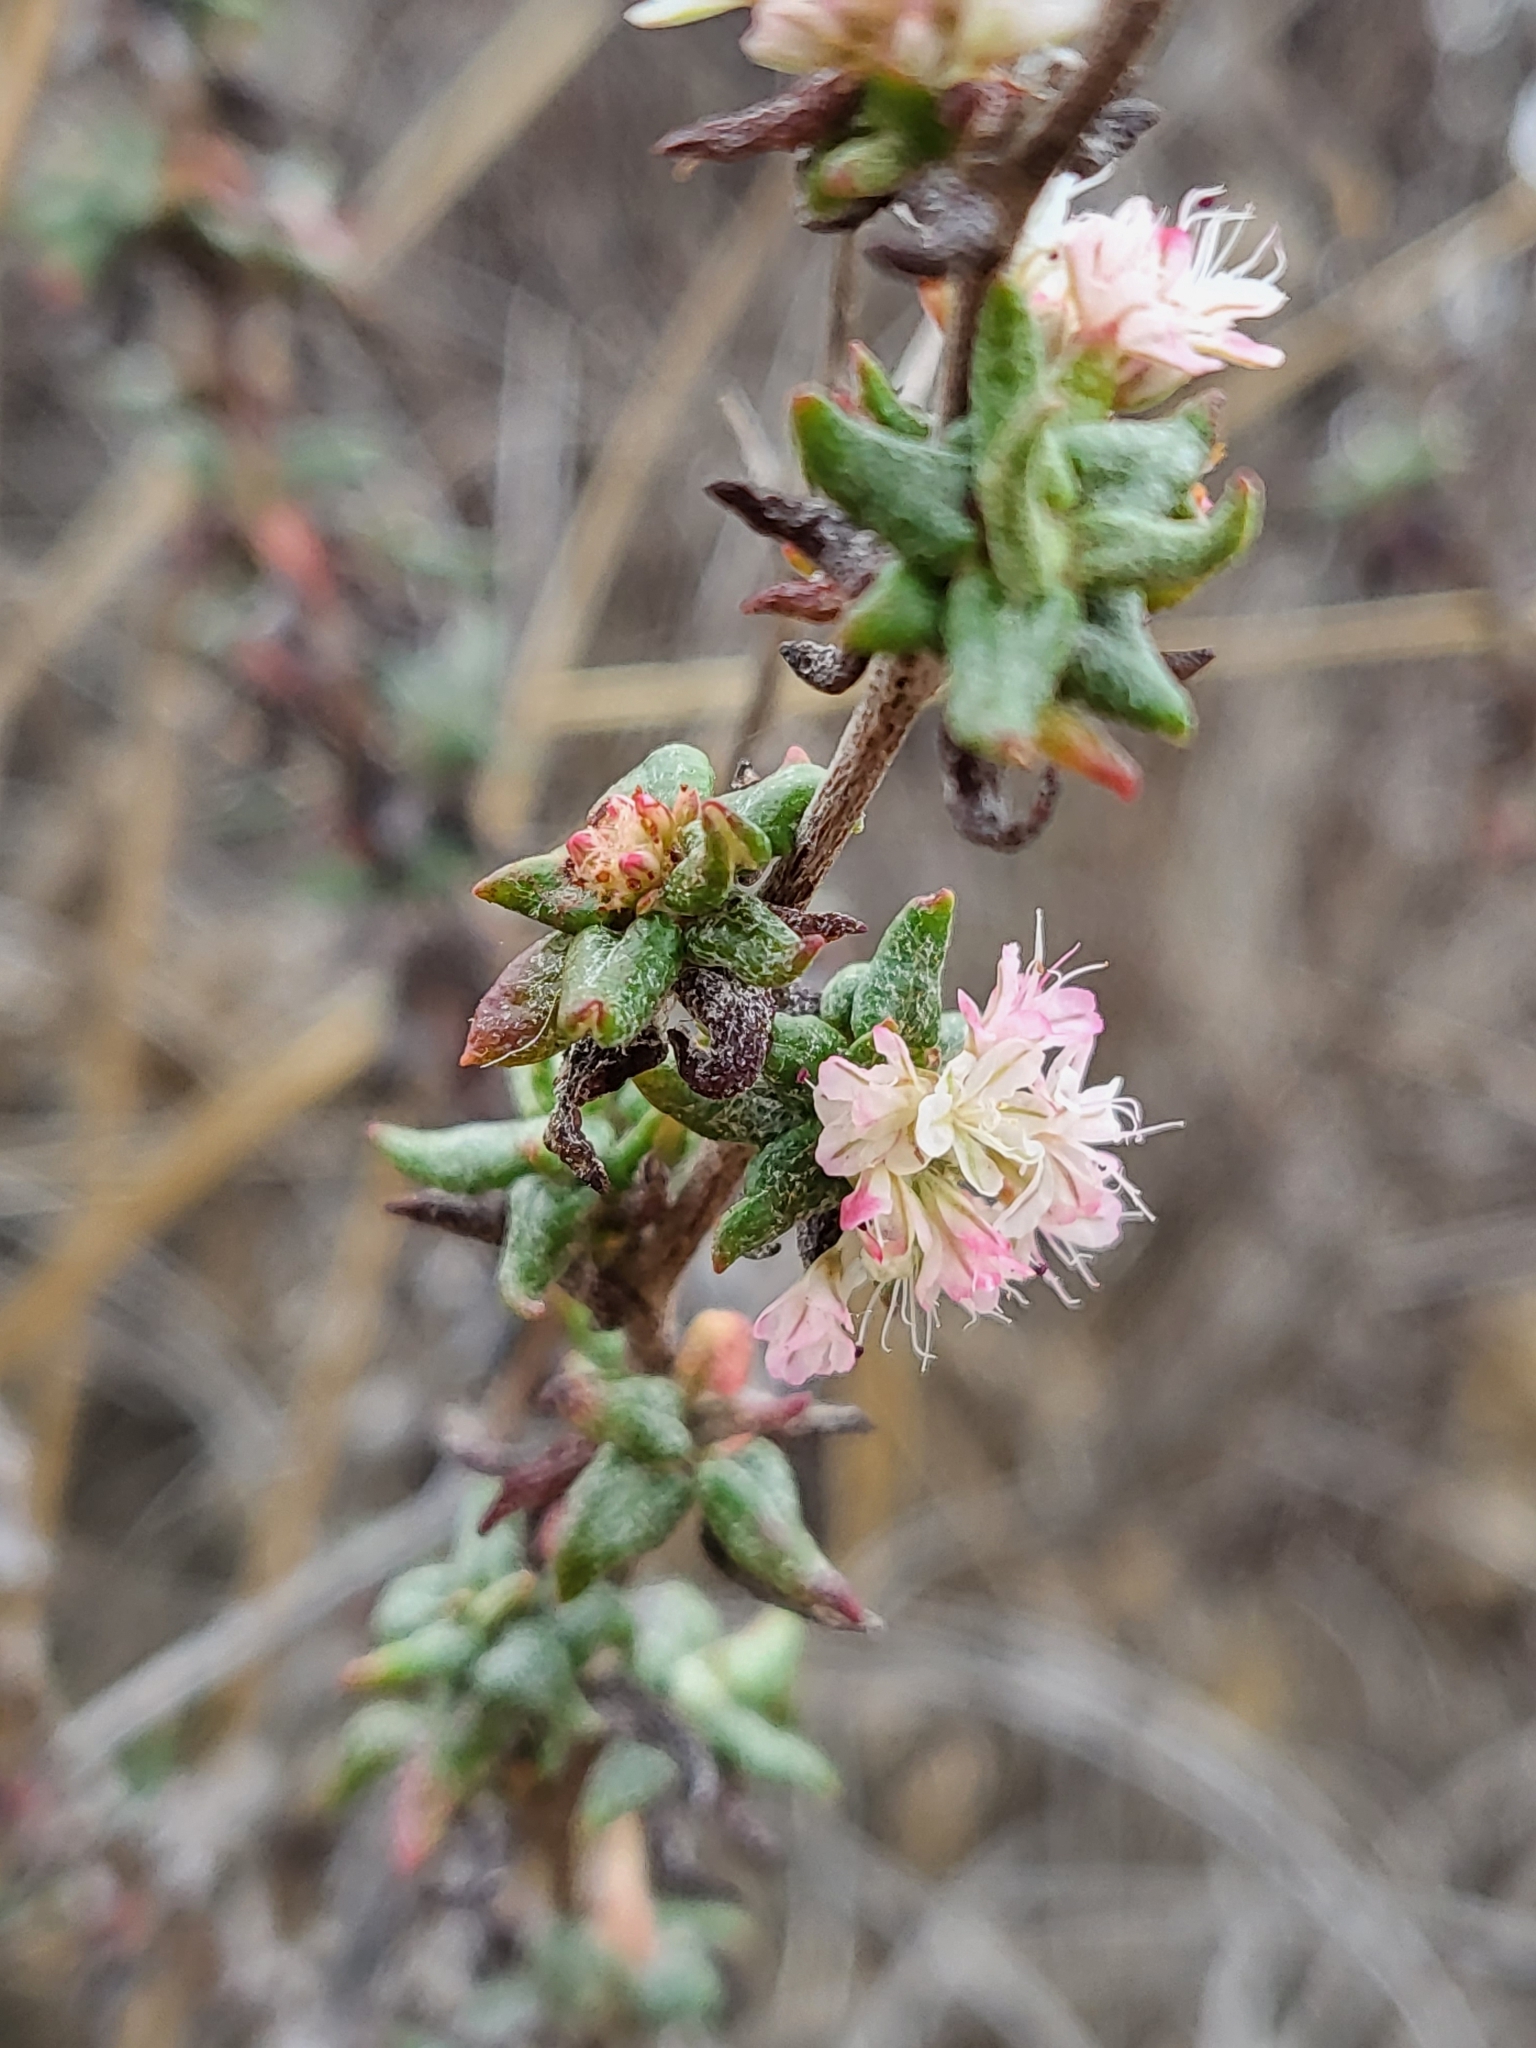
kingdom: Plantae
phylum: Tracheophyta
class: Magnoliopsida
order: Caryophyllales
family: Polygonaceae
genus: Eriogonum
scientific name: Eriogonum parvifolium
